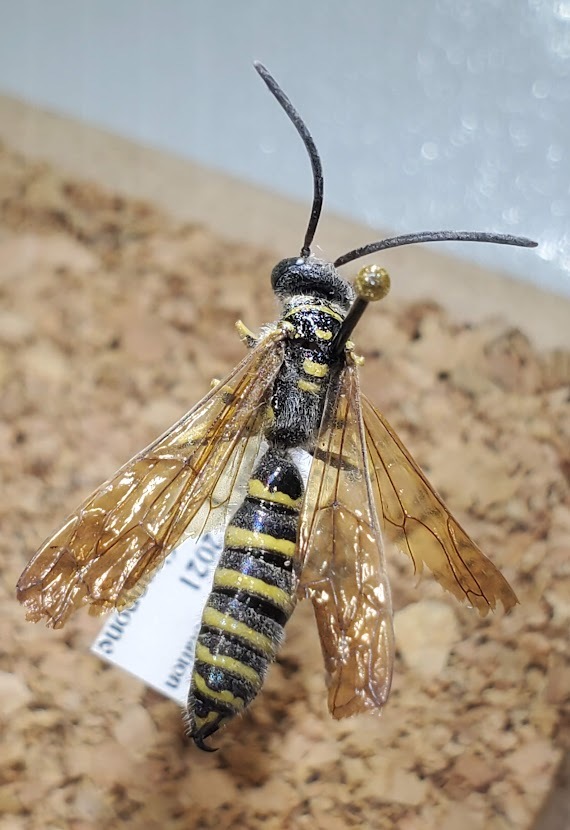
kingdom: Animalia
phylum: Arthropoda
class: Insecta
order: Hymenoptera
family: Tiphiidae
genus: Myzinum
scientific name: Myzinum quinquecinctum
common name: Five-banded thynnid wasp
